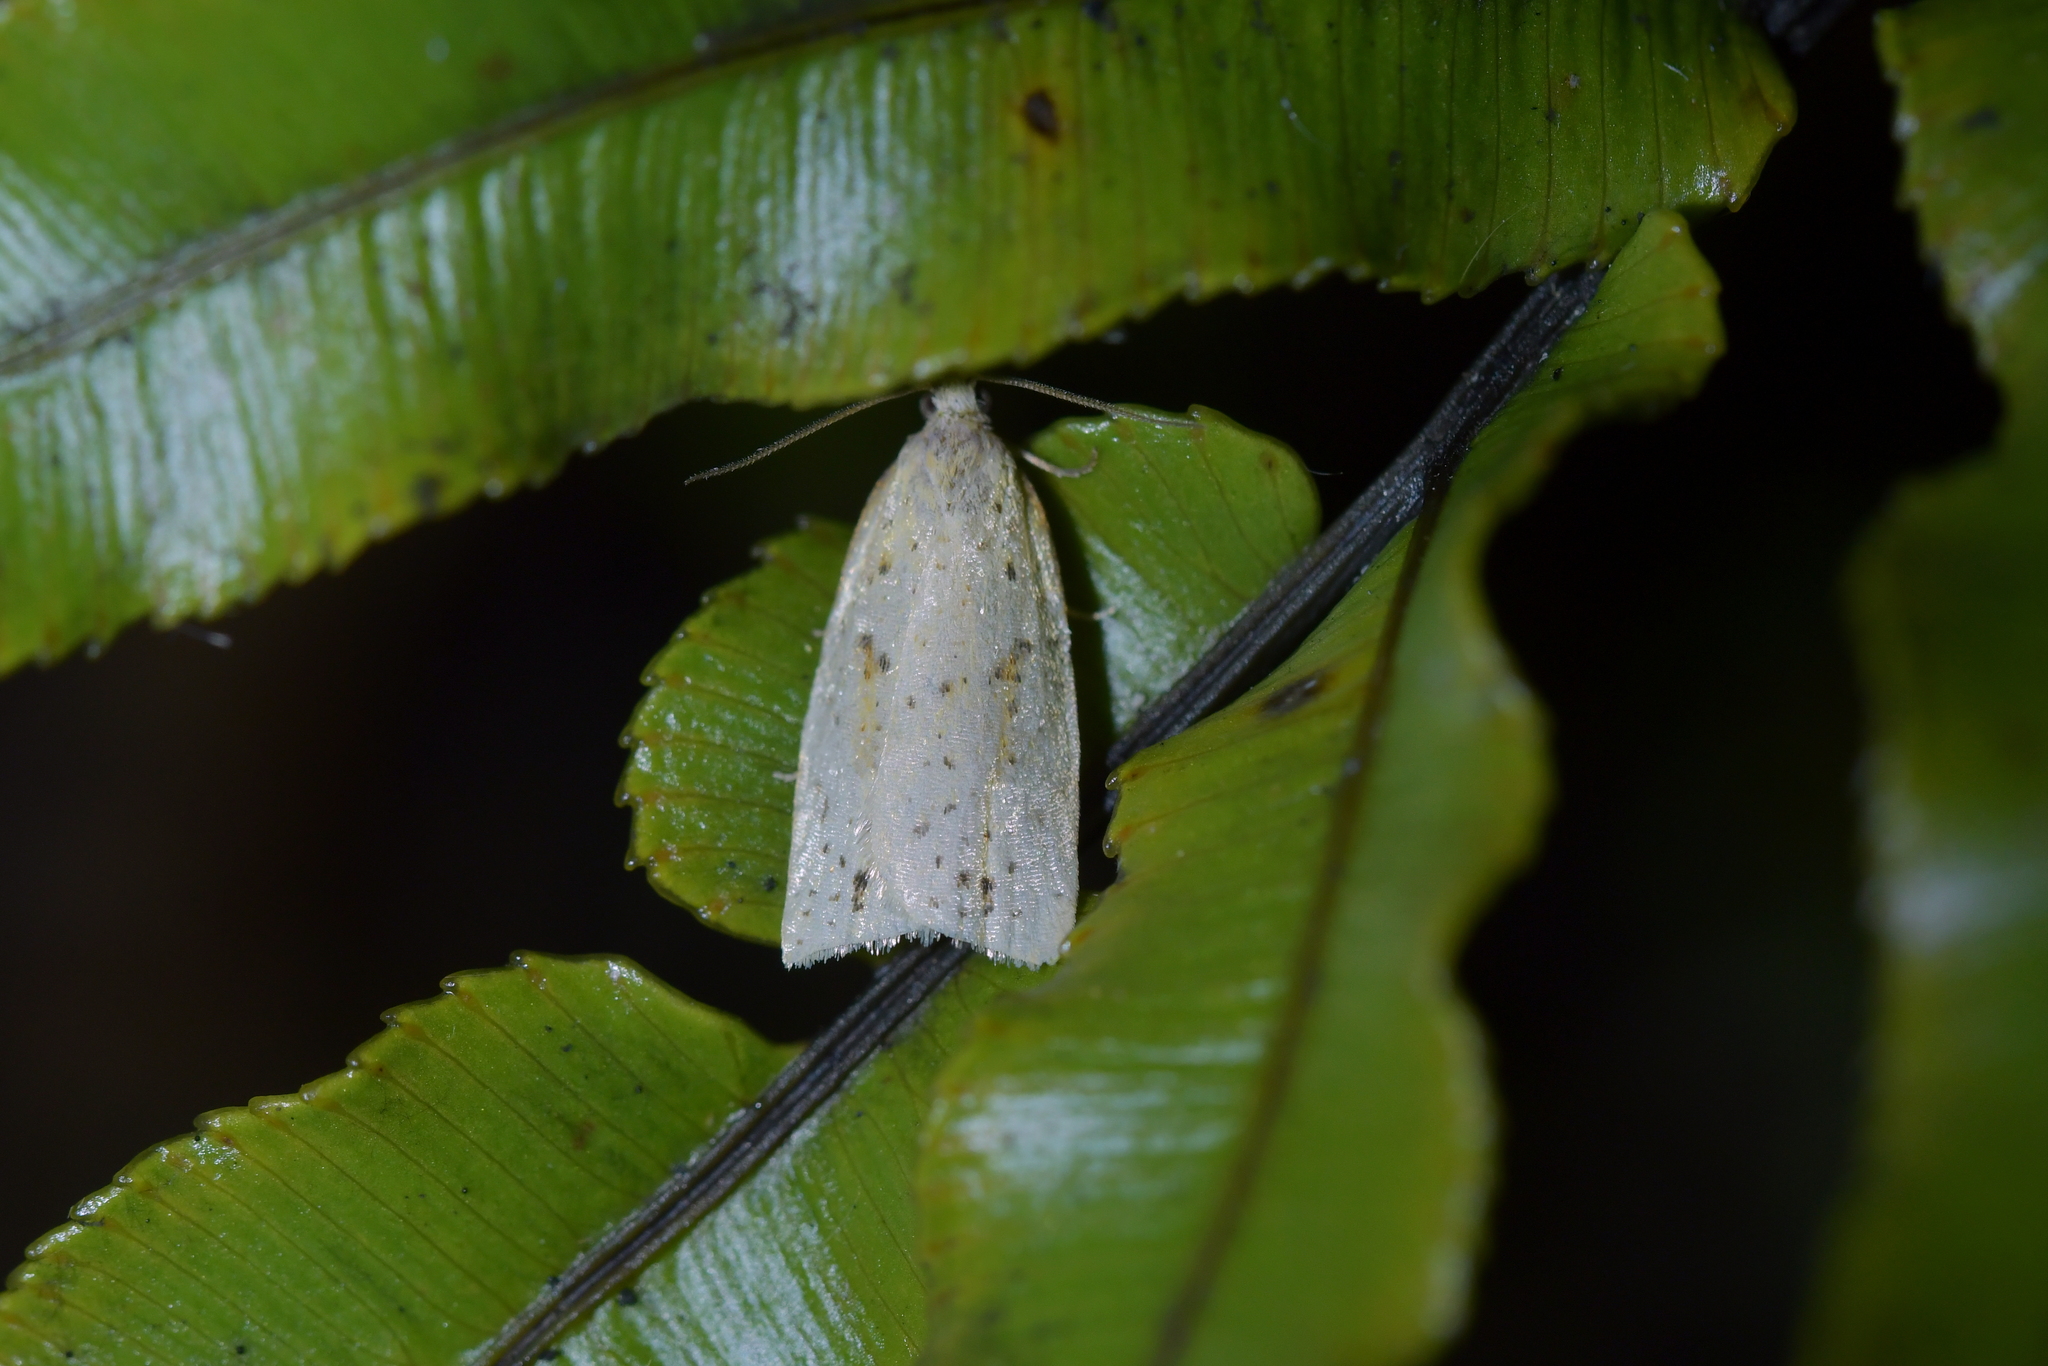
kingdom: Animalia
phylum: Arthropoda
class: Insecta
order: Lepidoptera
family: Tortricidae
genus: Apoctena
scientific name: Apoctena conditana
